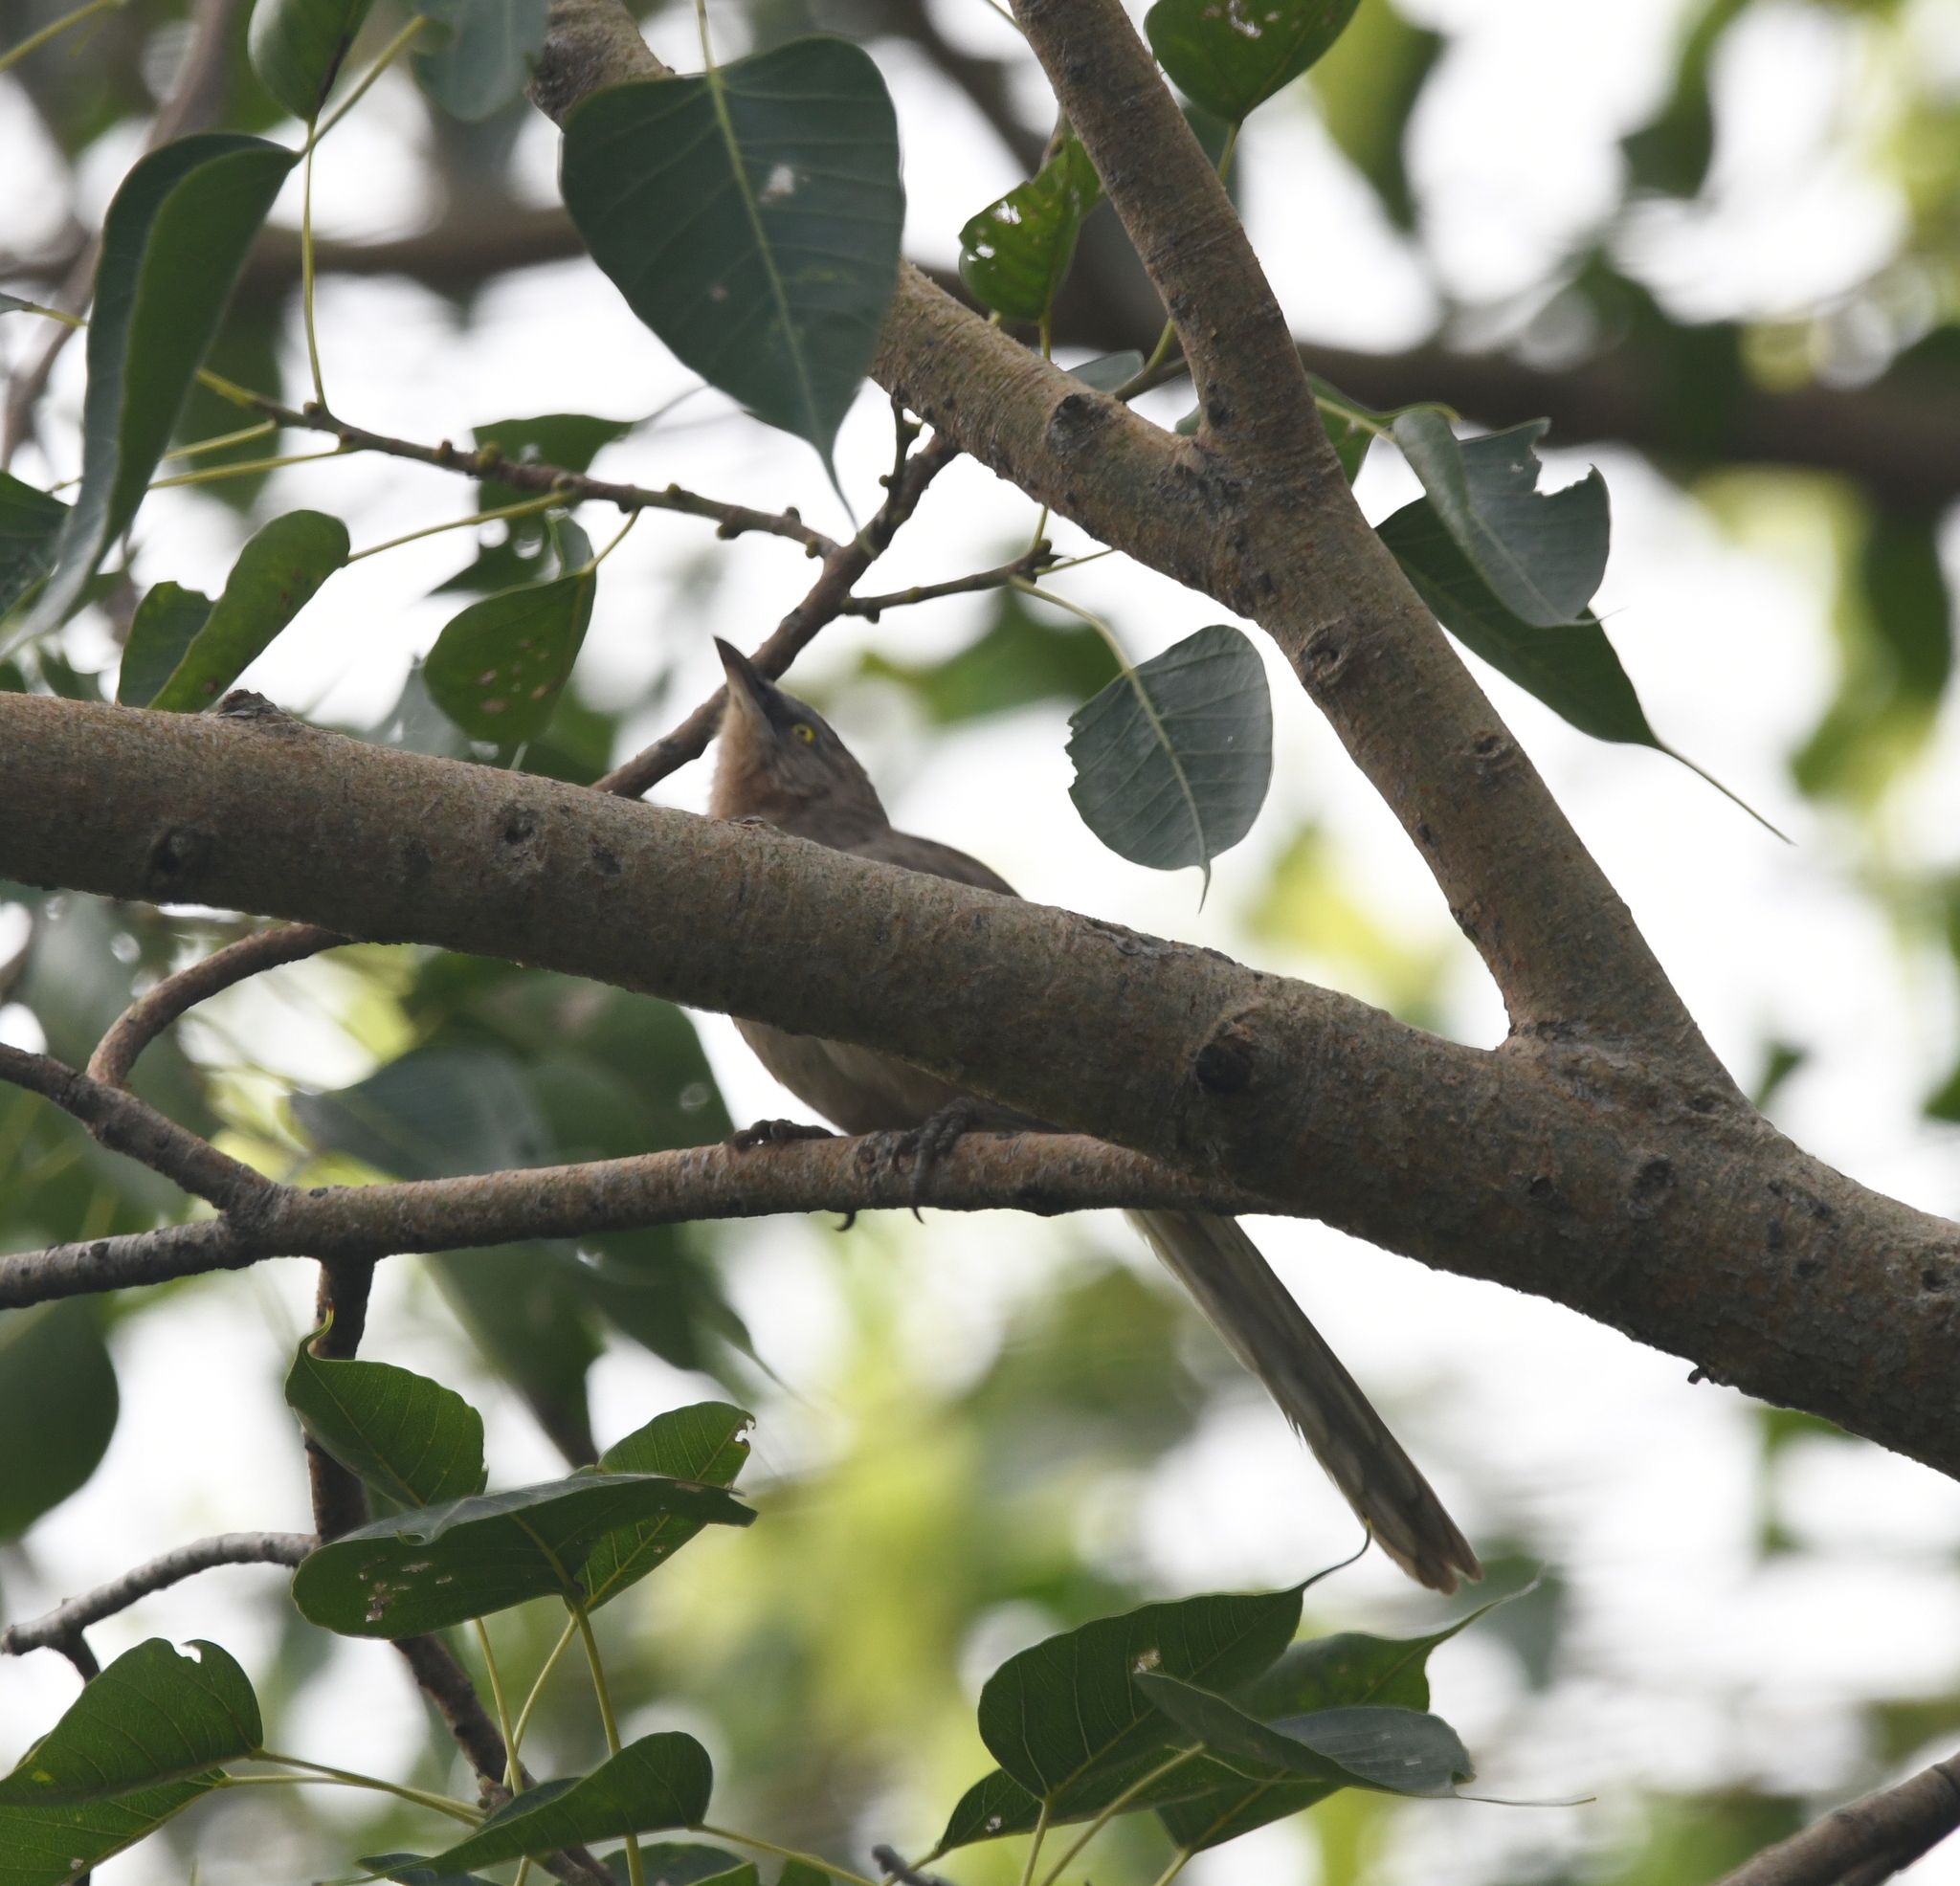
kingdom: Animalia
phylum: Chordata
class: Aves
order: Passeriformes
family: Leiothrichidae
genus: Turdoides
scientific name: Turdoides malcolmi
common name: Large grey babbler
